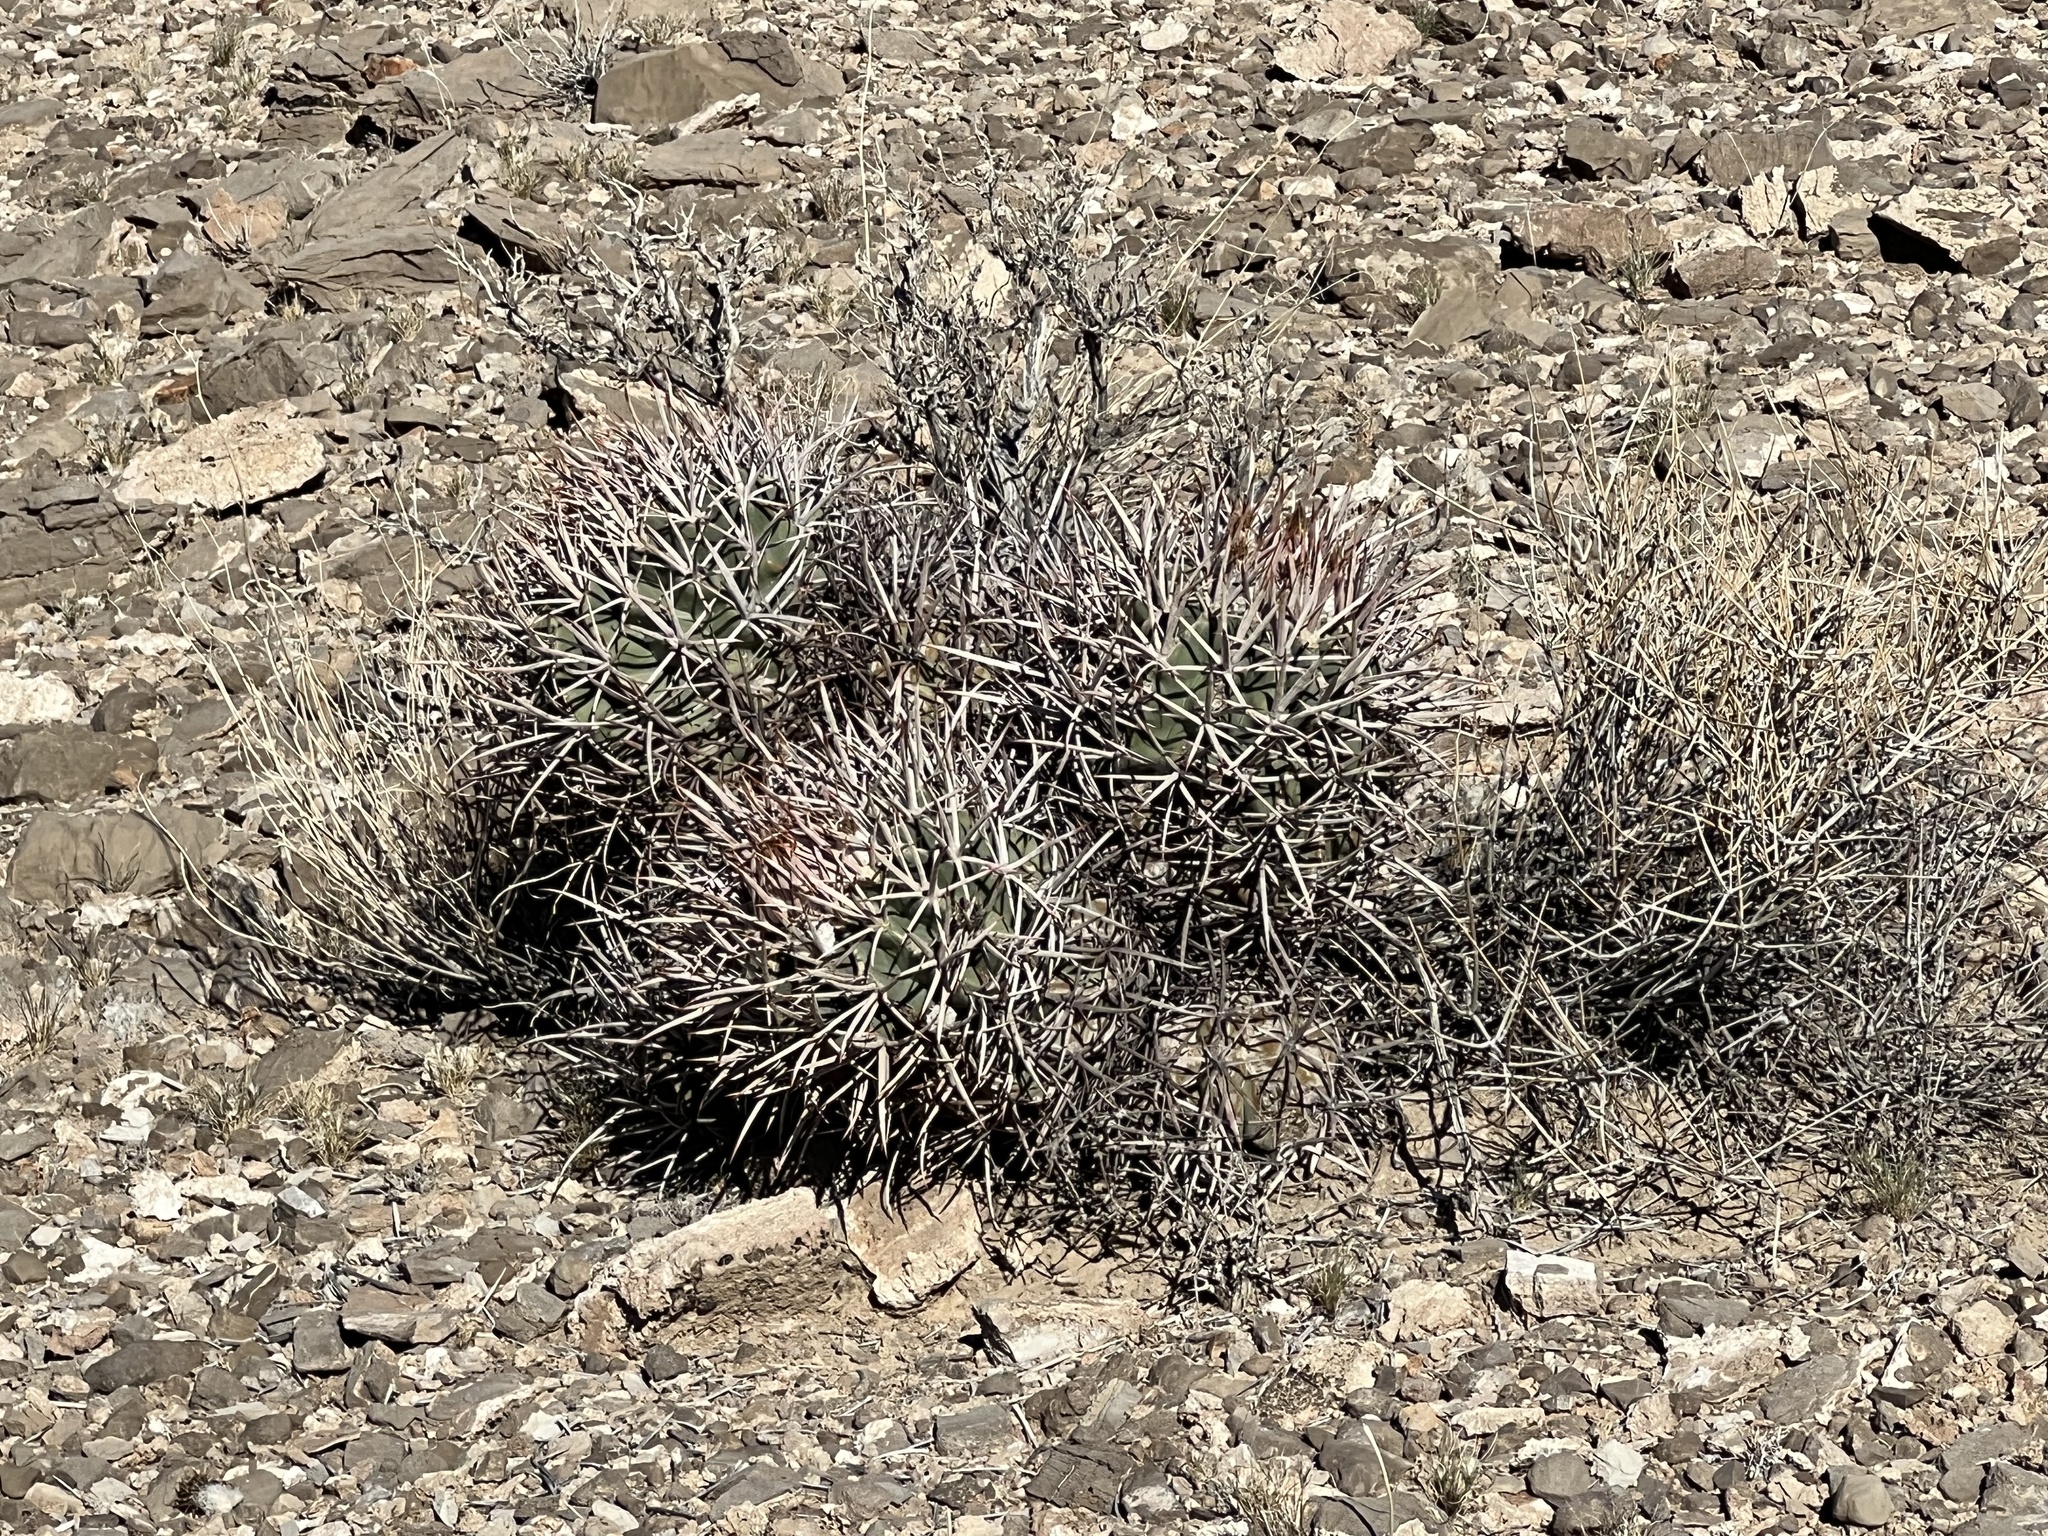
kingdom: Plantae
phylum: Tracheophyta
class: Magnoliopsida
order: Caryophyllales
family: Cactaceae
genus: Echinocactus
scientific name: Echinocactus polycephalus
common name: Cottontop cactus
